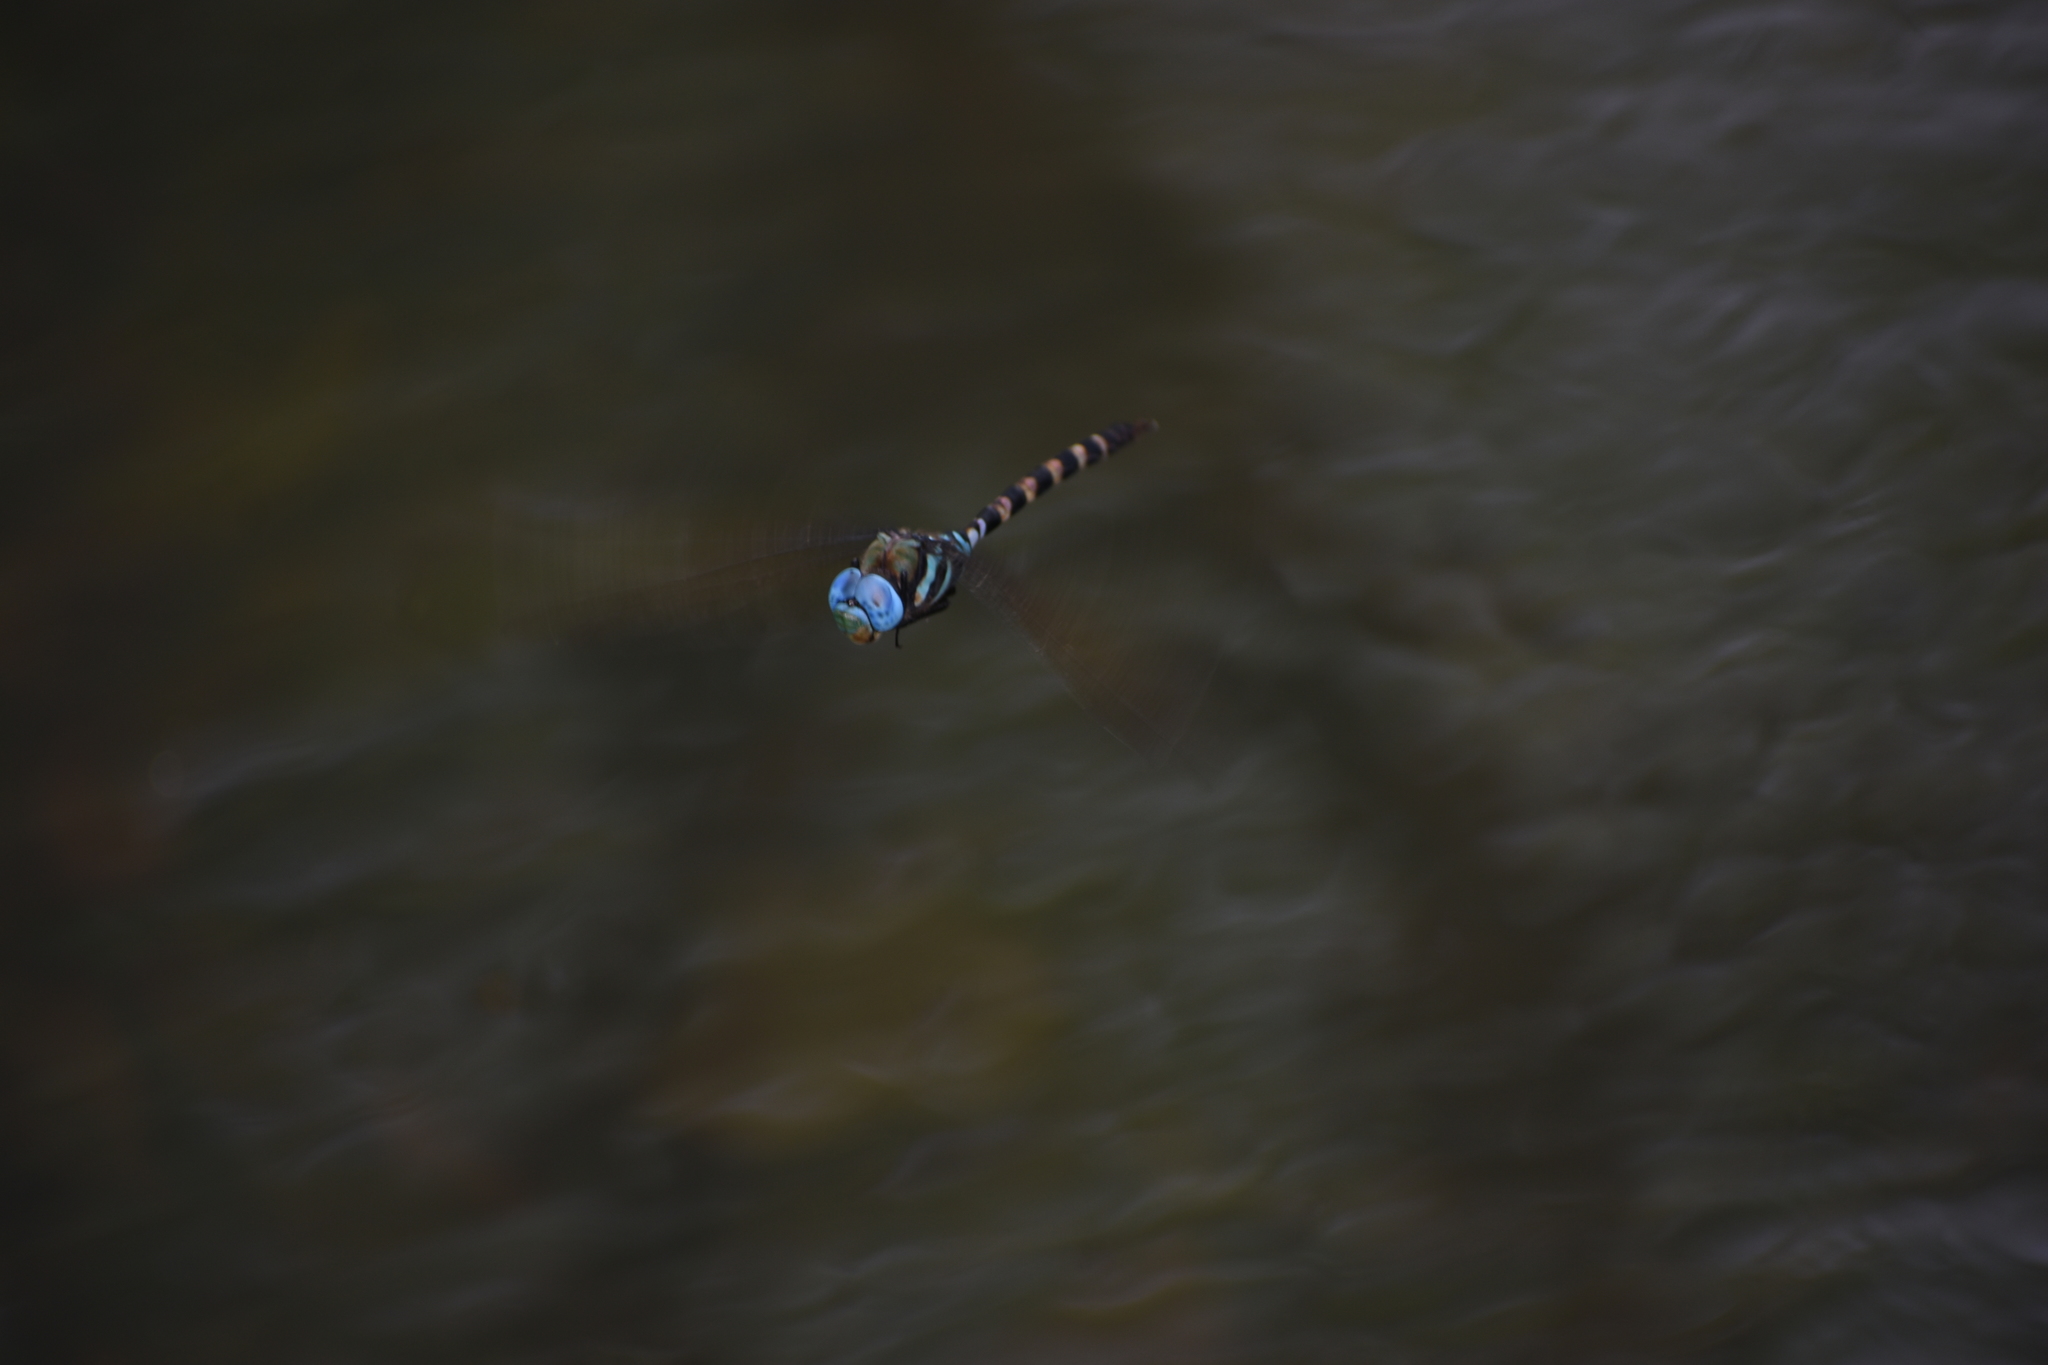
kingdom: Animalia
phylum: Arthropoda
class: Insecta
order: Odonata
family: Aeshnidae
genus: Anax
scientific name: Anax immaculifrons
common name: Magnificent emperor
